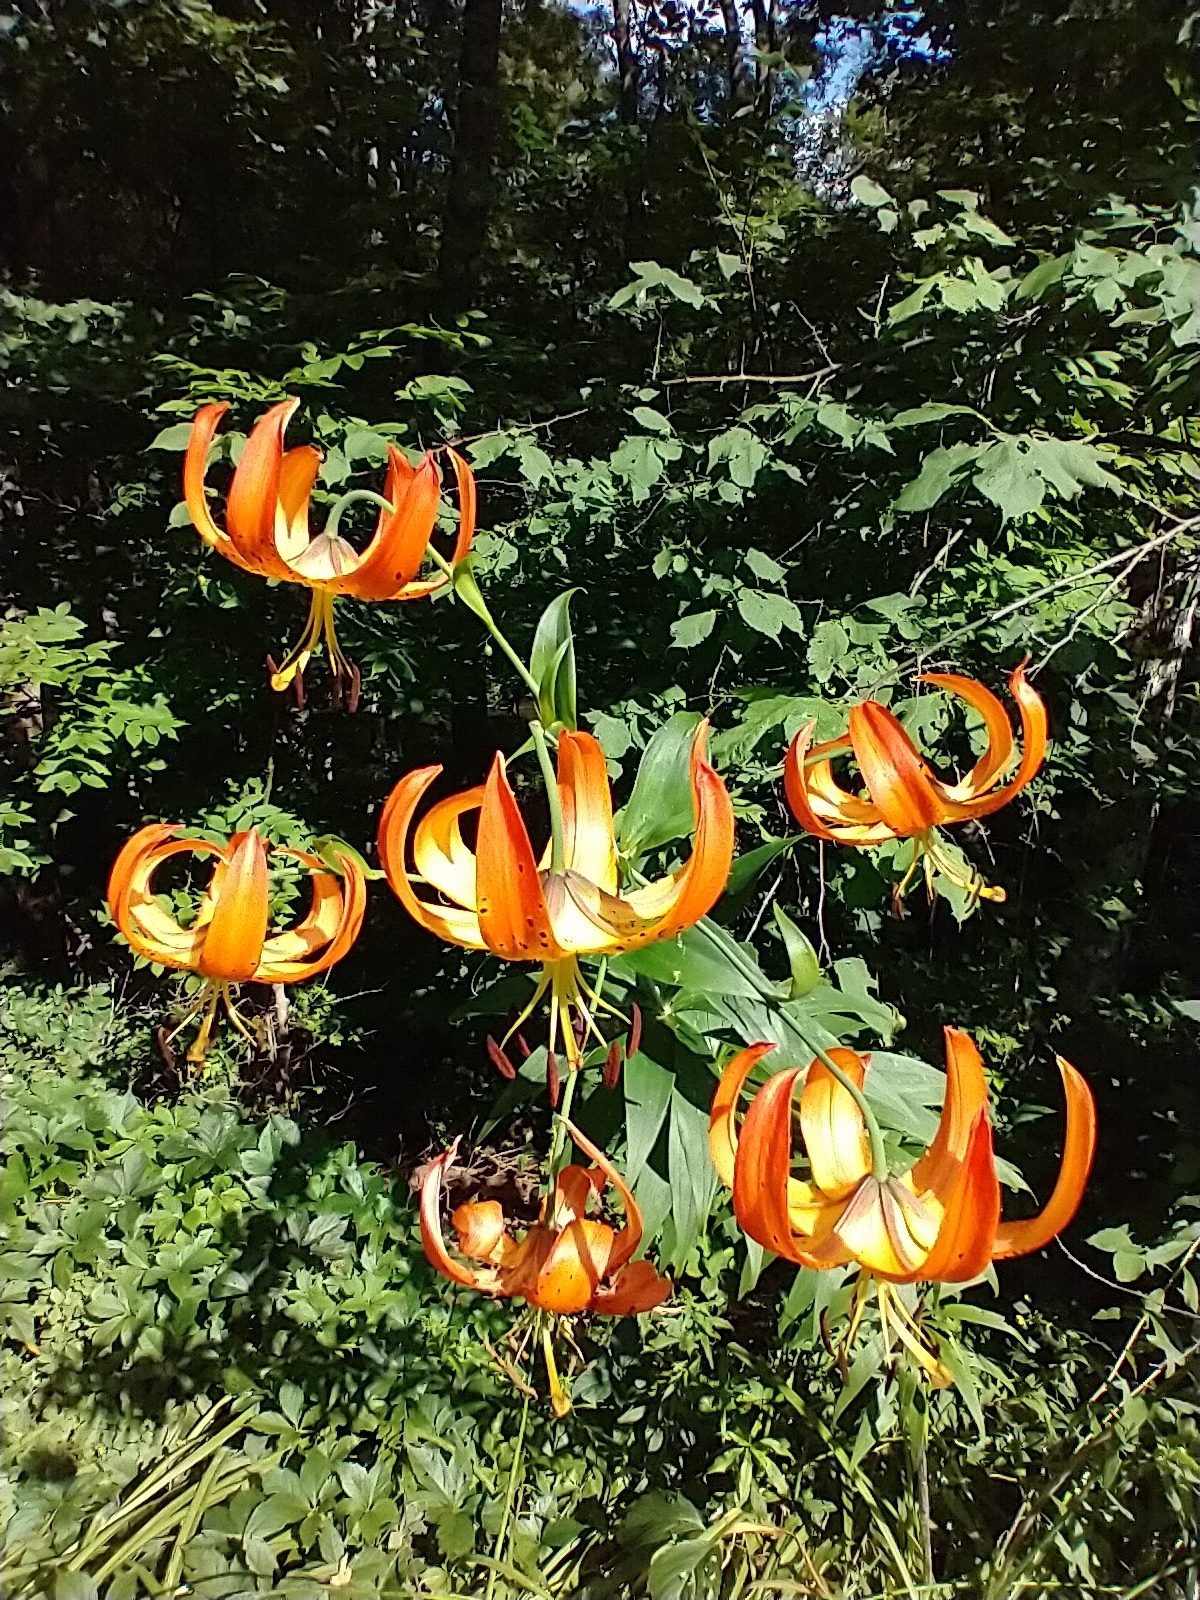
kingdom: Plantae
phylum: Tracheophyta
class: Liliopsida
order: Liliales
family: Liliaceae
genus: Lilium
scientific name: Lilium superbum
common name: American turk's-cap lily
